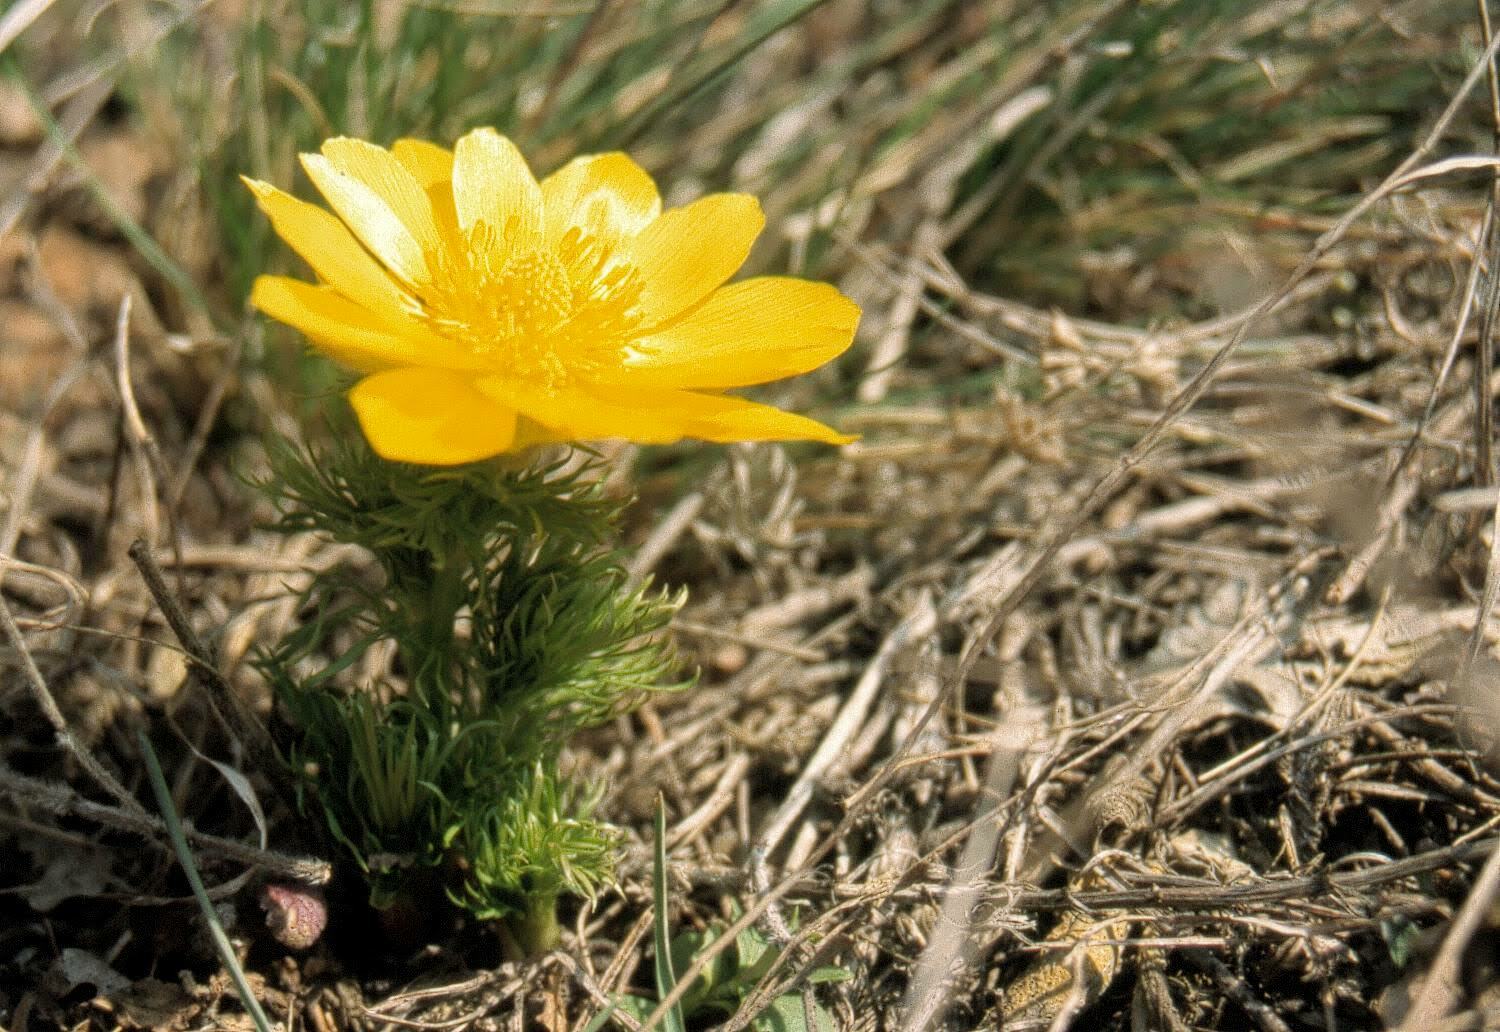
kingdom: Plantae
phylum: Tracheophyta
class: Magnoliopsida
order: Ranunculales
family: Ranunculaceae
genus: Adonis
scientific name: Adonis vernalis
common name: Yellow pheasants-eye
